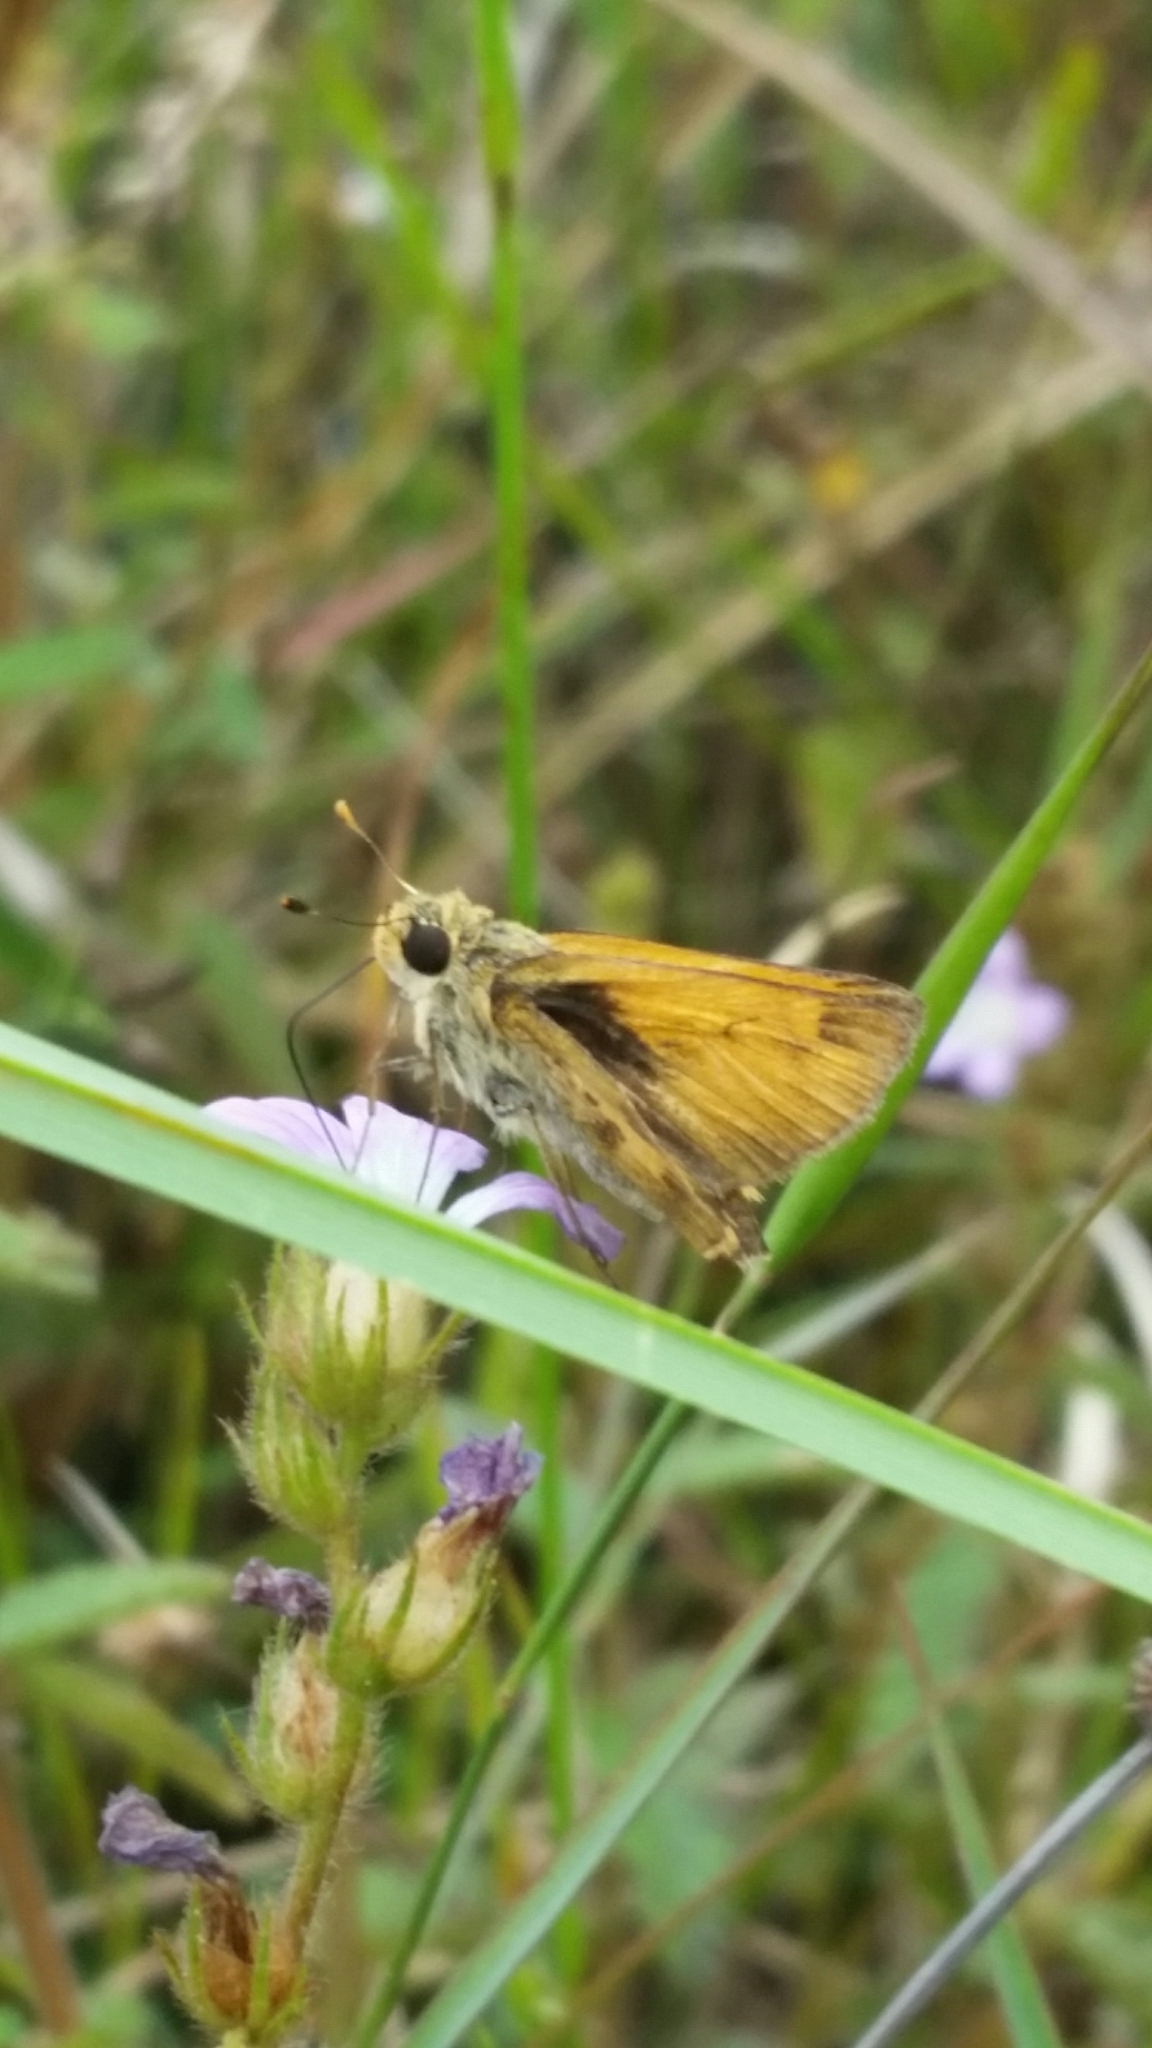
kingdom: Animalia
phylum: Arthropoda
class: Insecta
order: Lepidoptera
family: Hesperiidae
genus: Polites
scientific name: Polites vibex
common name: Whirlabout
